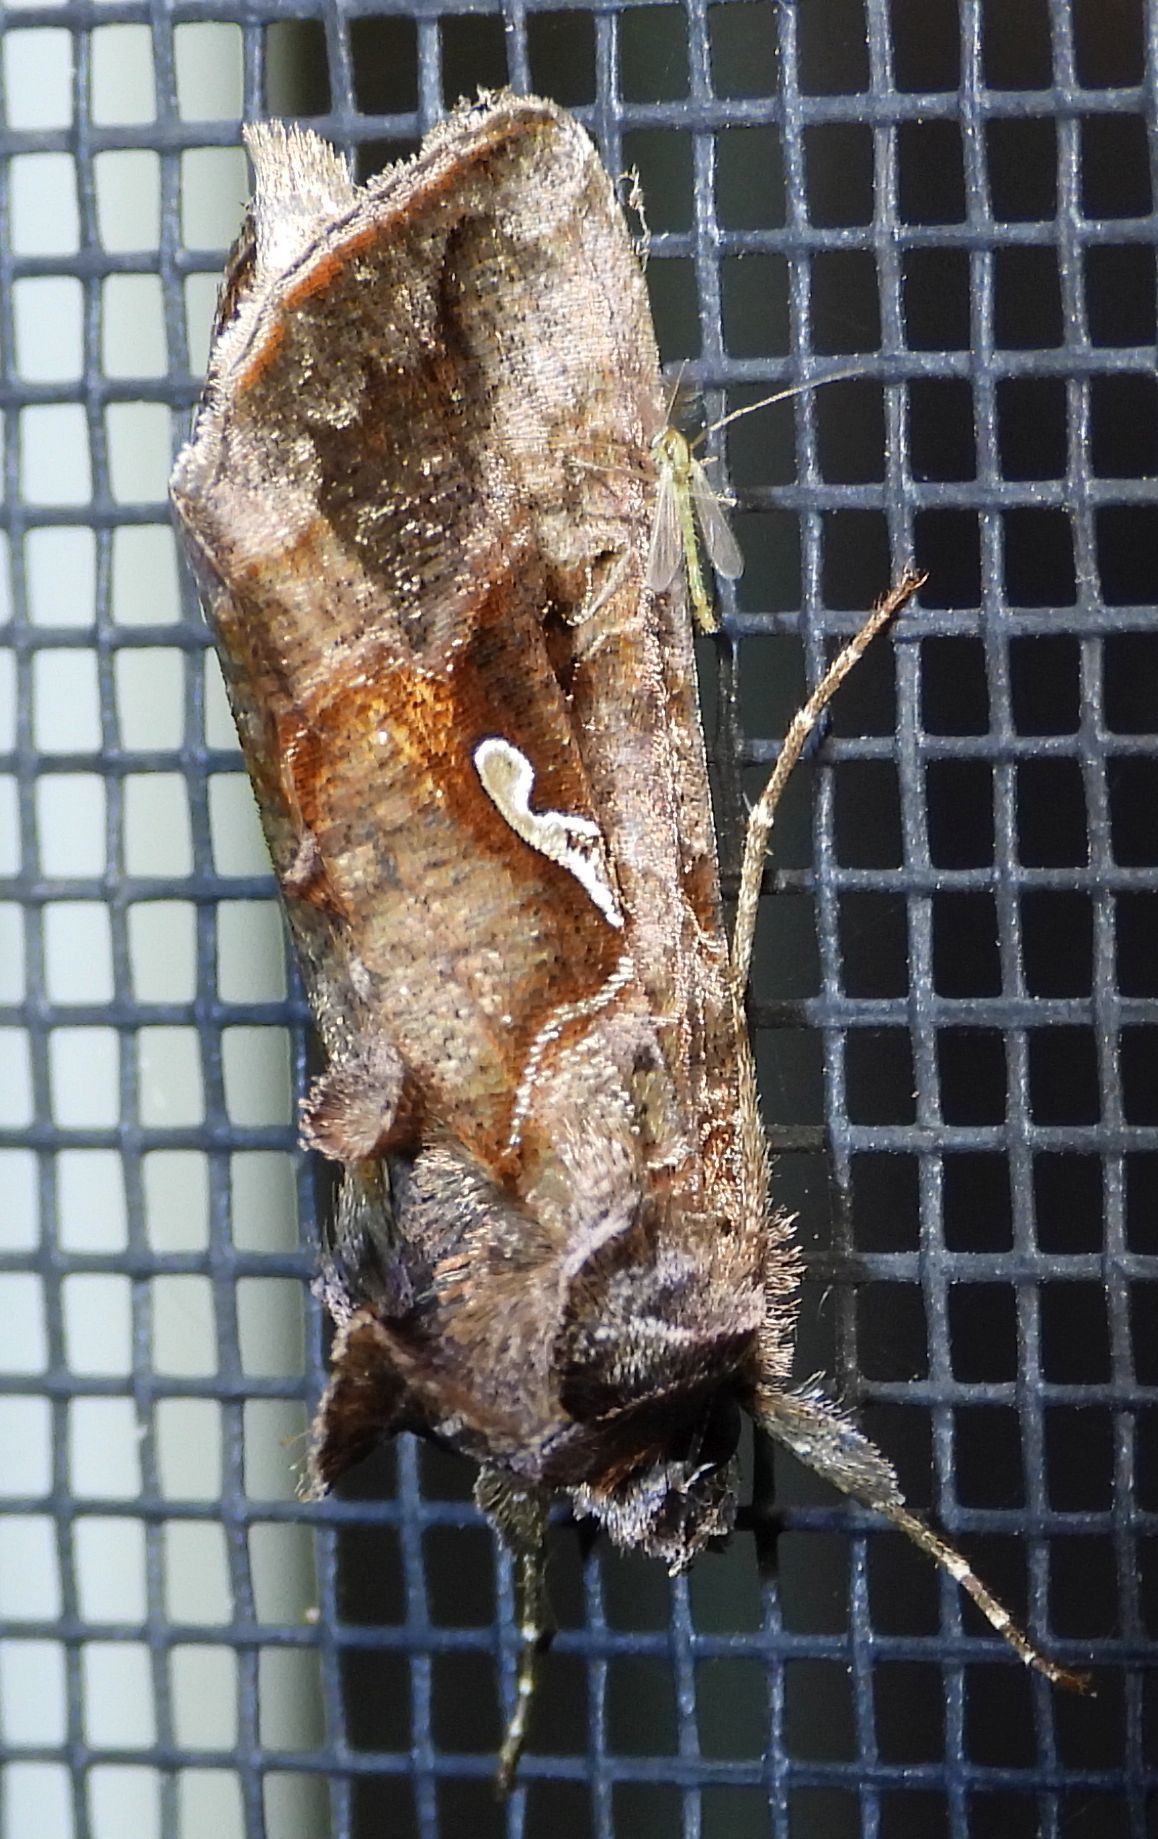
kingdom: Animalia
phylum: Arthropoda
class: Insecta
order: Lepidoptera
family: Noctuidae
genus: Autographa
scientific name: Autographa precationis
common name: Common looper moth
